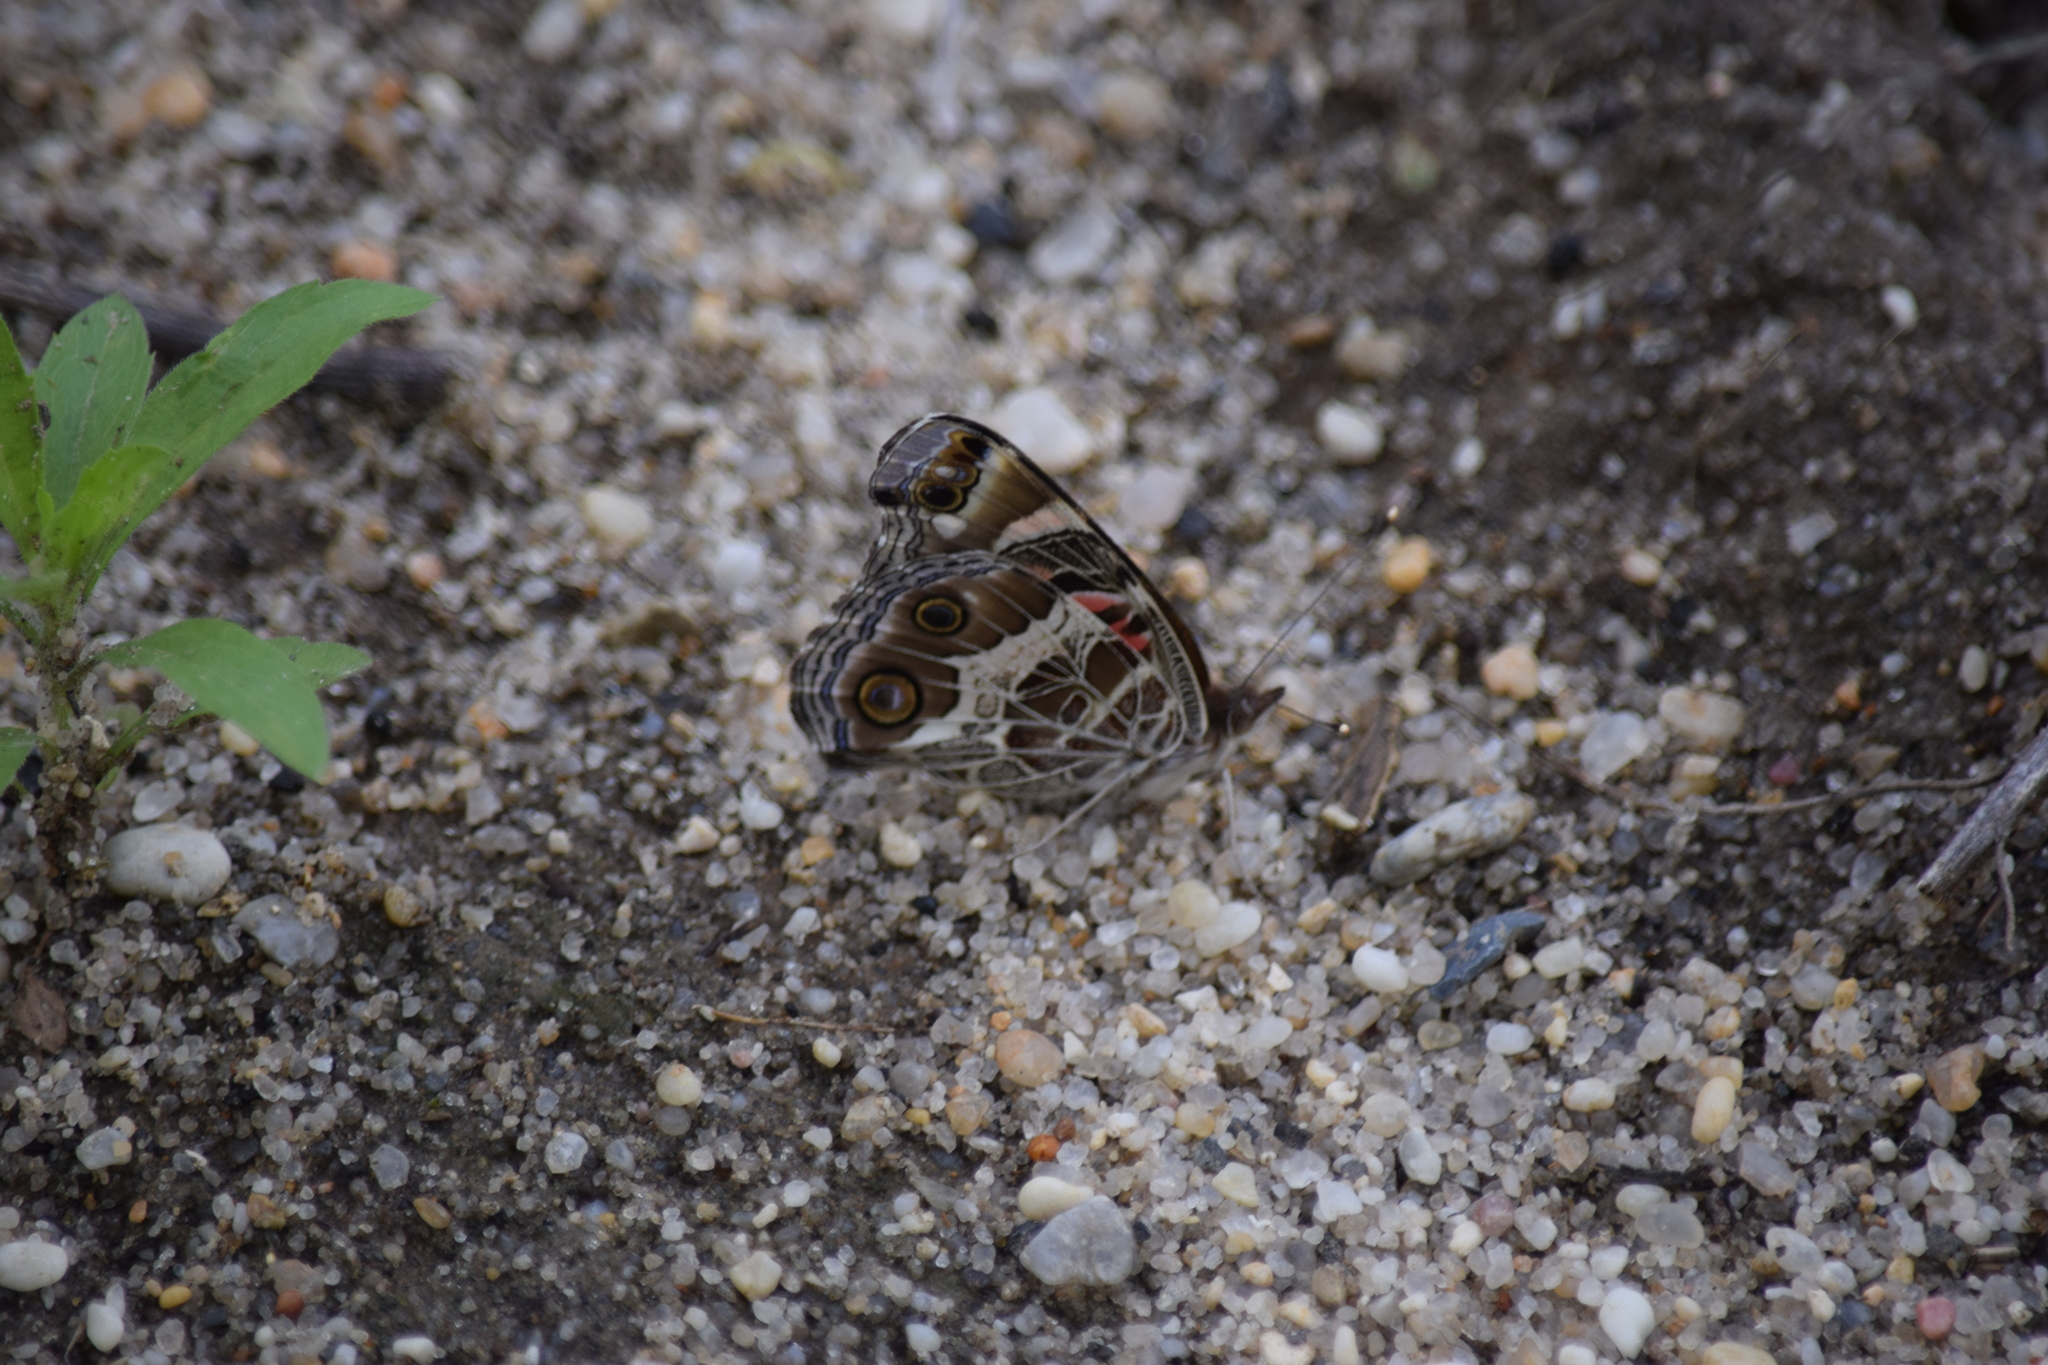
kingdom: Animalia
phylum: Arthropoda
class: Insecta
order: Lepidoptera
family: Nymphalidae
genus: Vanessa
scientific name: Vanessa virginiensis
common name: American lady
